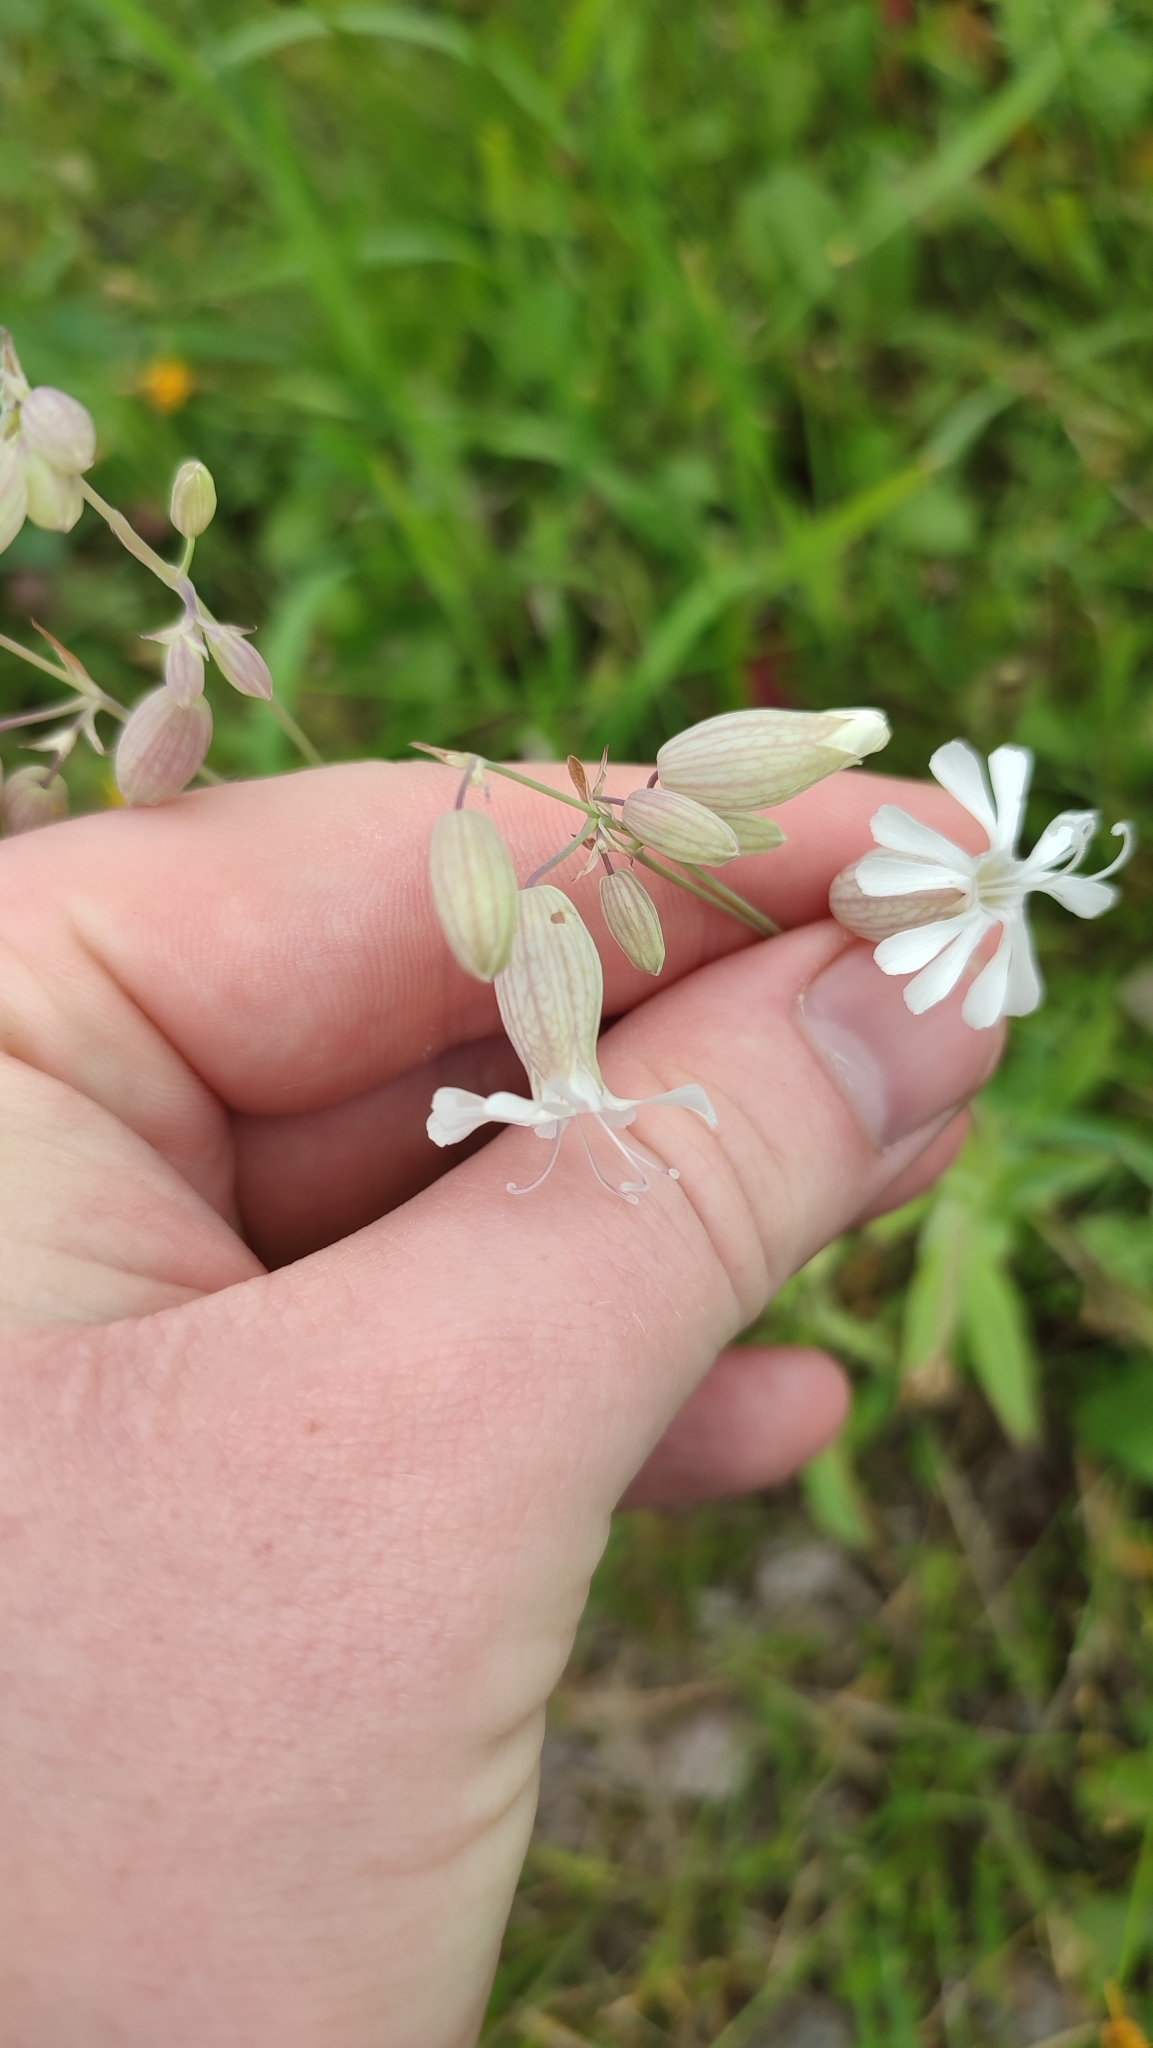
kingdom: Plantae
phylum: Tracheophyta
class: Magnoliopsida
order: Caryophyllales
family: Caryophyllaceae
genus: Silene
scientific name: Silene vulgaris
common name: Bladder campion
